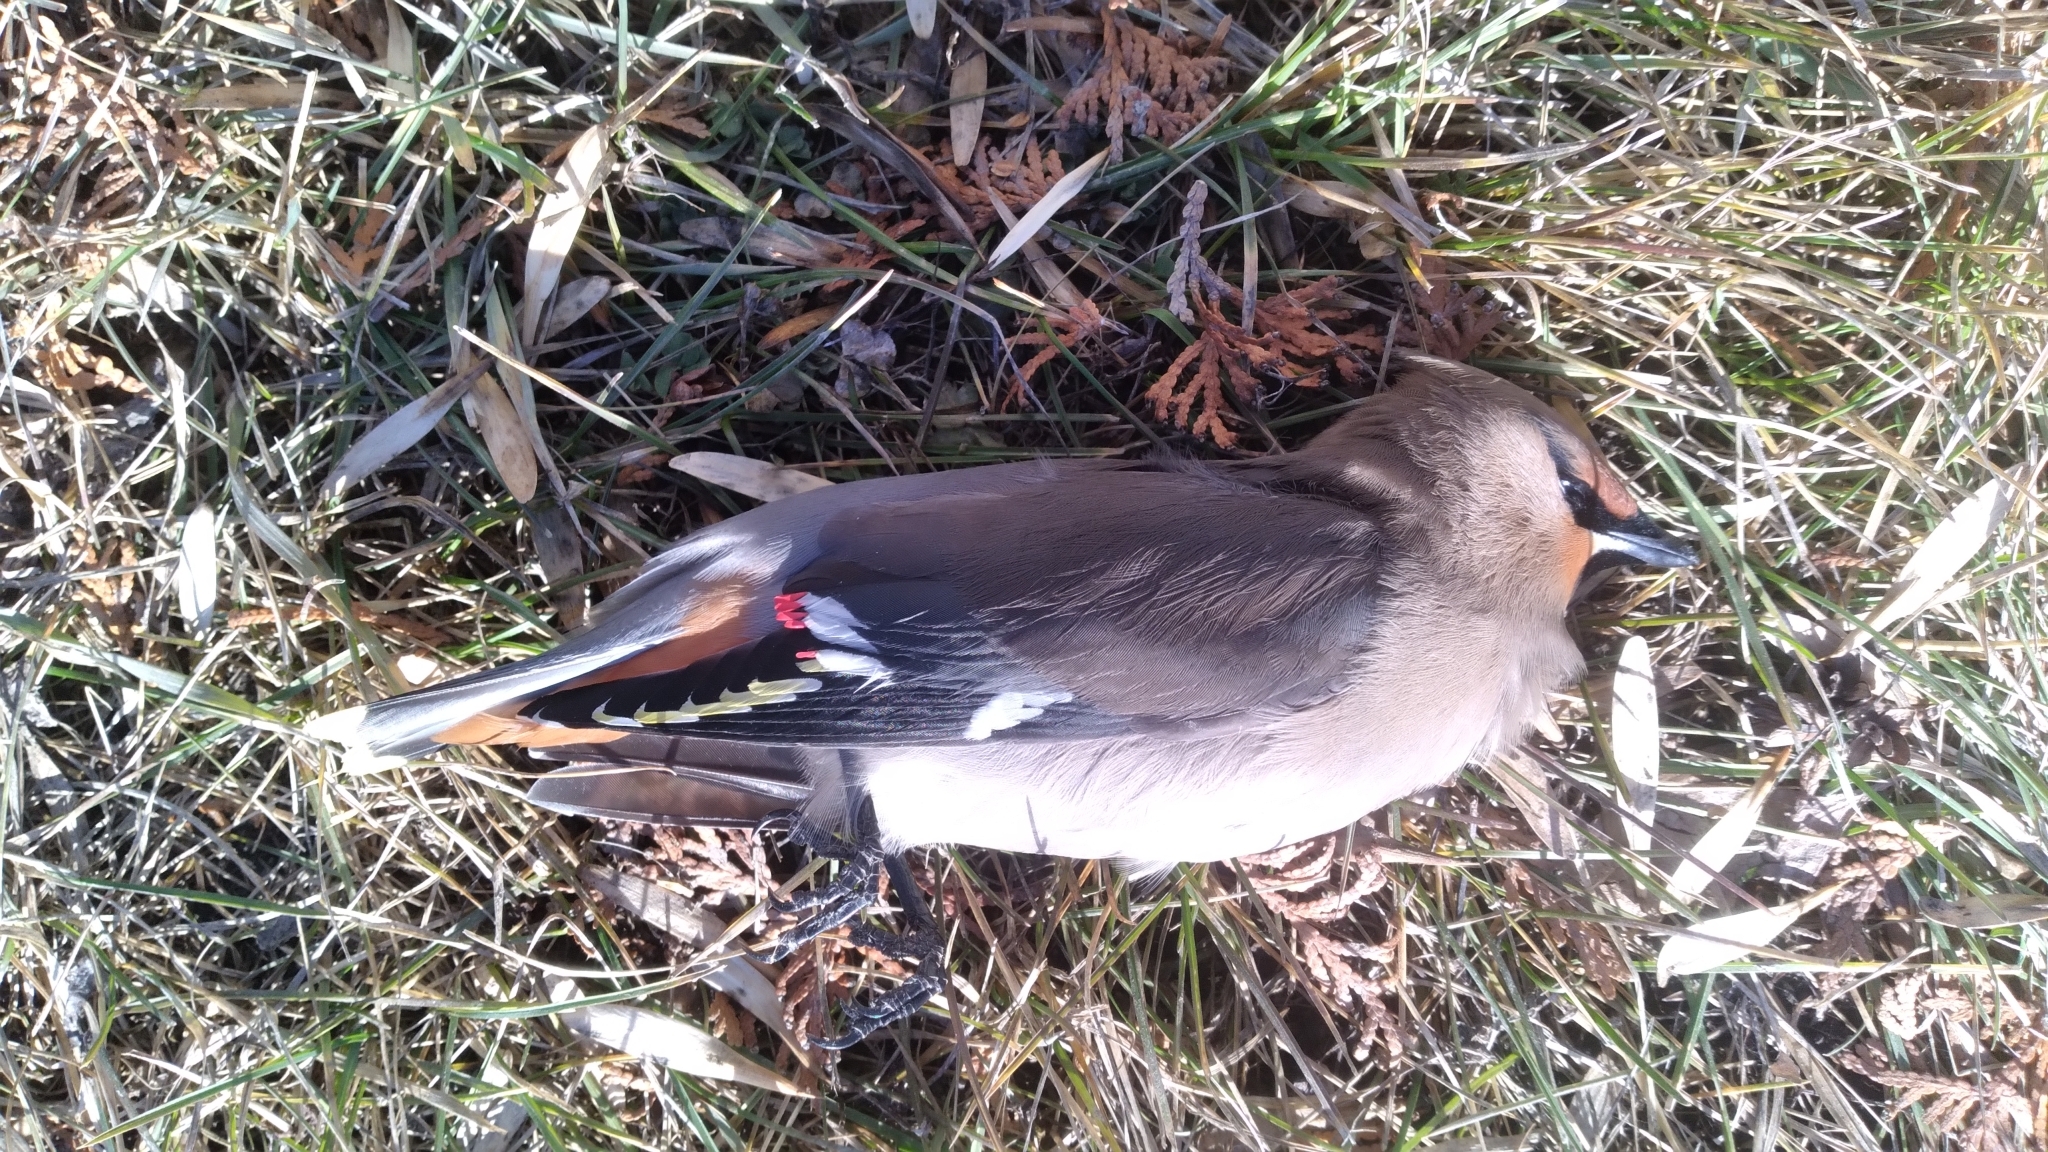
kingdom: Animalia
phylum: Chordata
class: Aves
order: Passeriformes
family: Bombycillidae
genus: Bombycilla
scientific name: Bombycilla garrulus
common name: Bohemian waxwing
